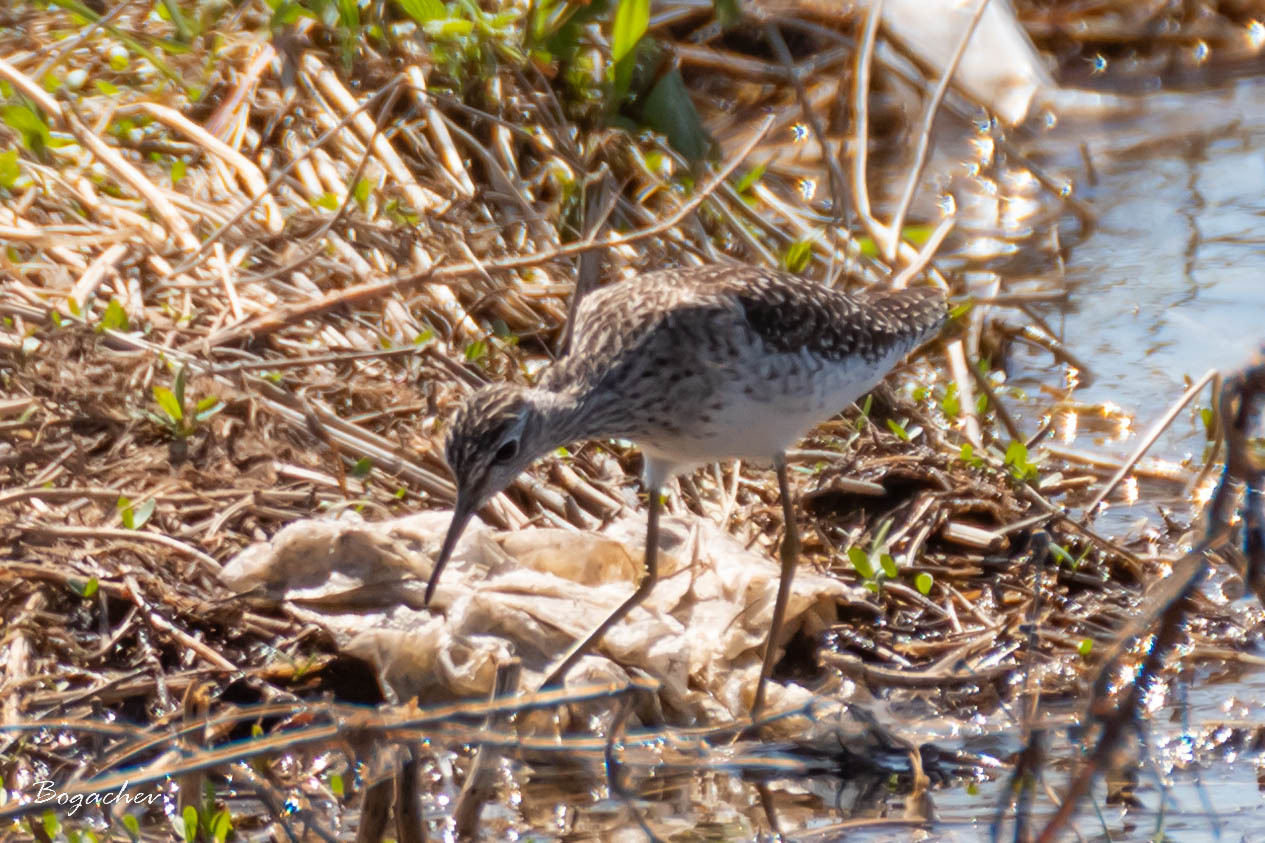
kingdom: Animalia
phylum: Chordata
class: Aves
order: Charadriiformes
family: Scolopacidae
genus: Tringa
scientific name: Tringa glareola
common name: Wood sandpiper
